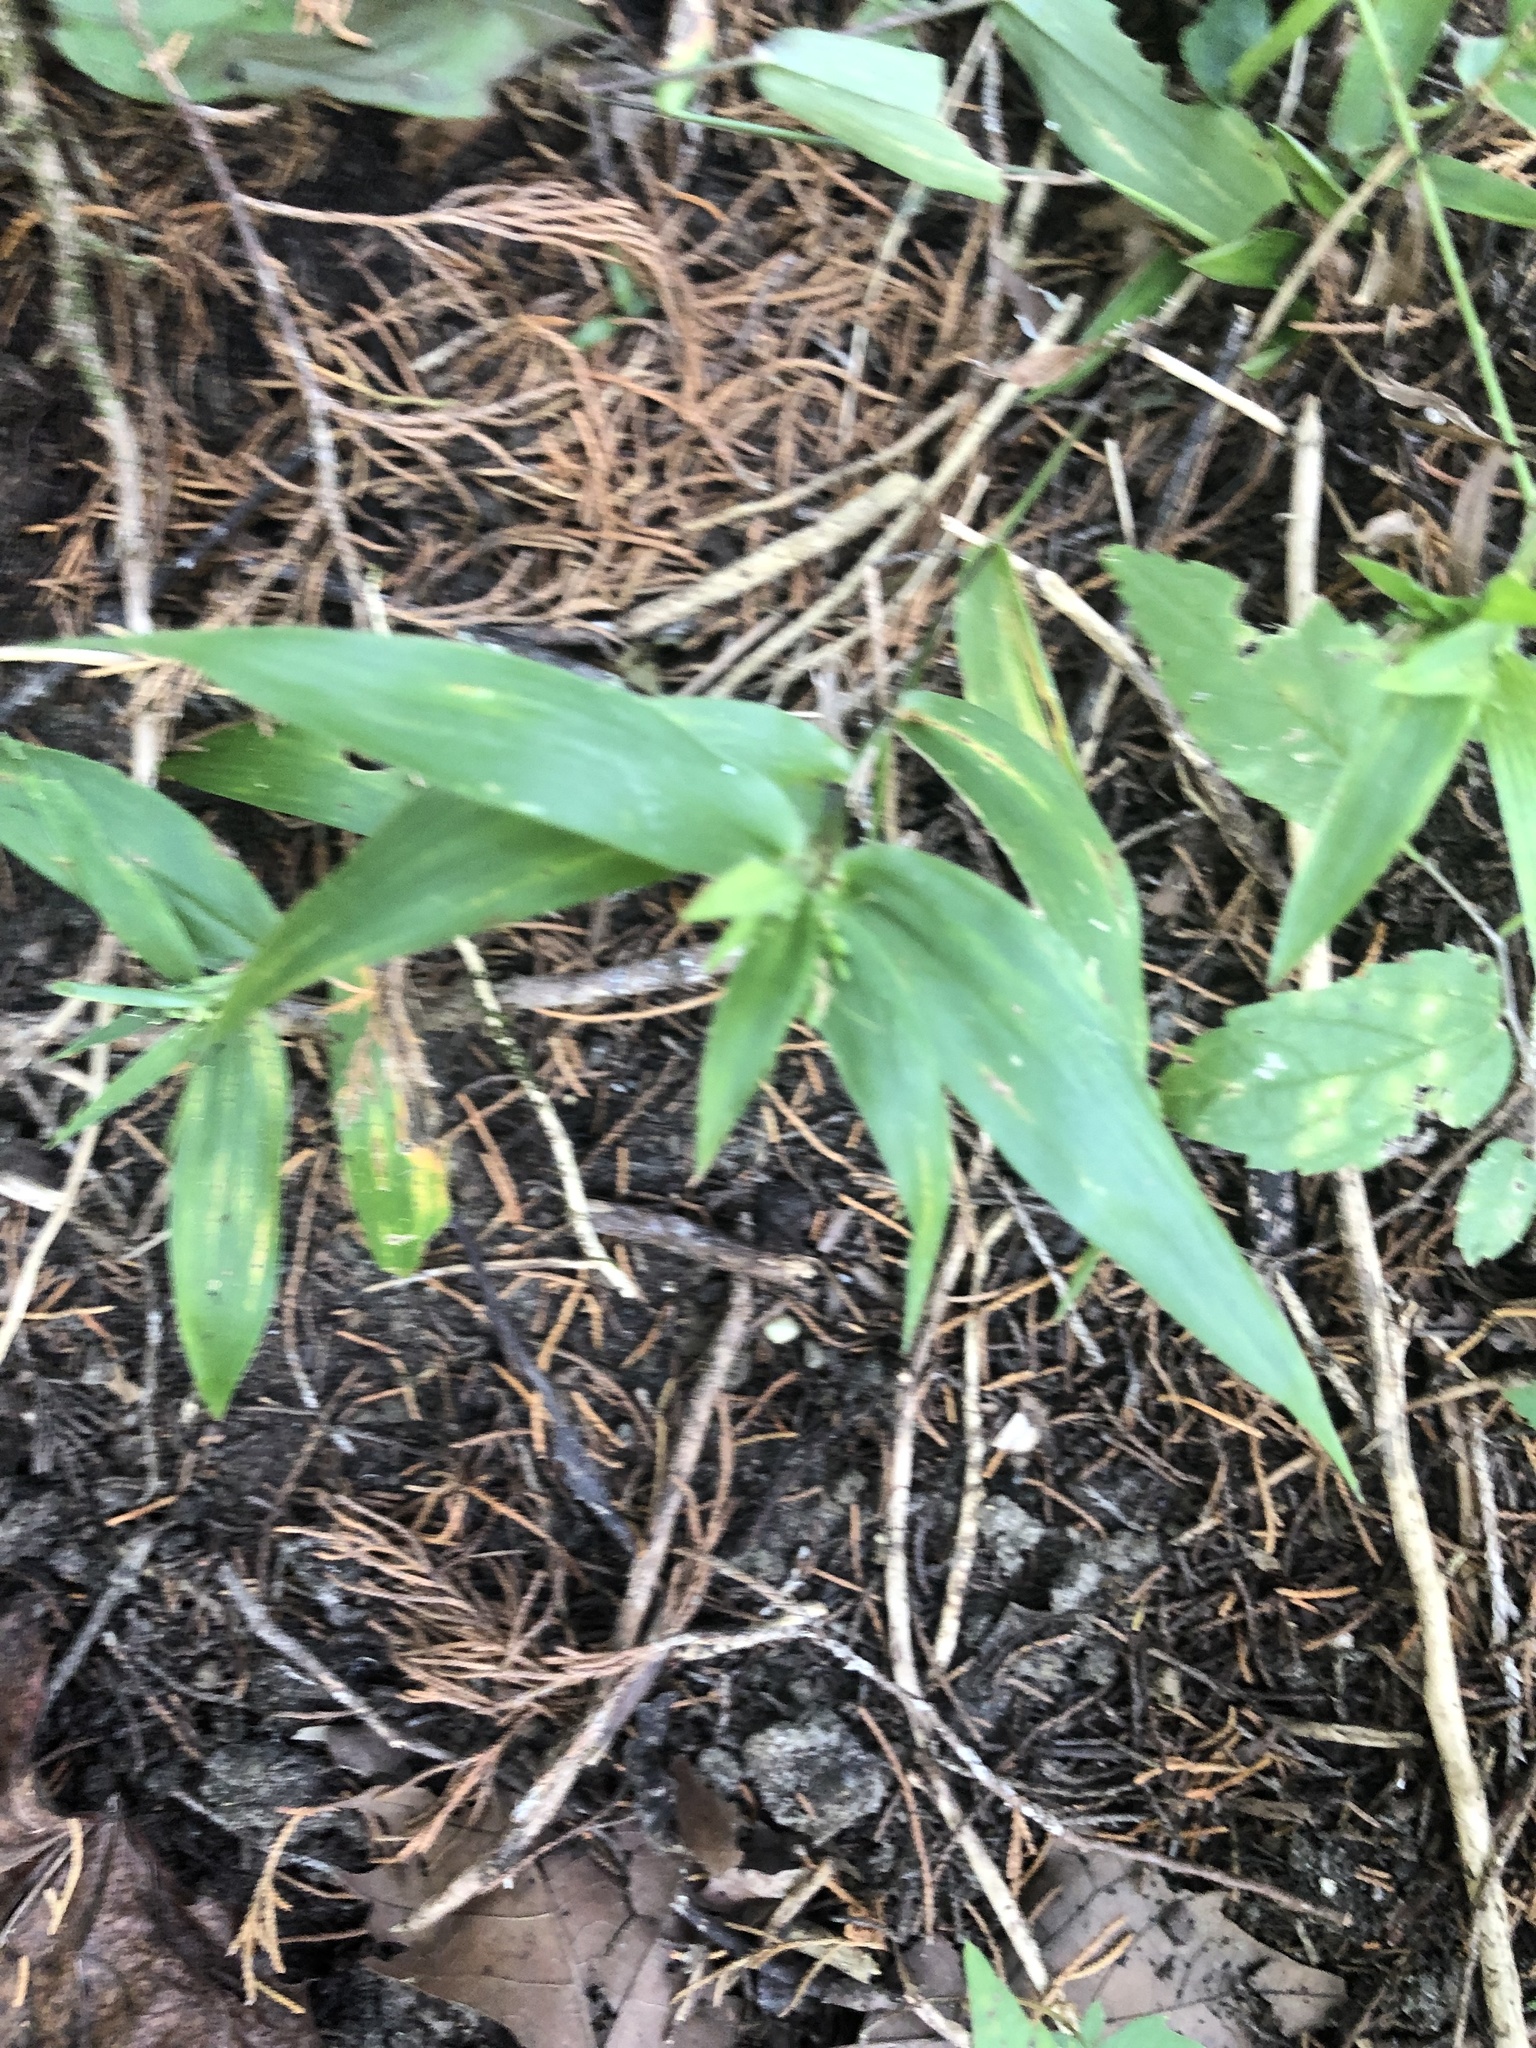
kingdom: Plantae
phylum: Tracheophyta
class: Liliopsida
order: Poales
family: Poaceae
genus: Dichanthelium
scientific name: Dichanthelium commutatum
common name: Variable witchgrass
